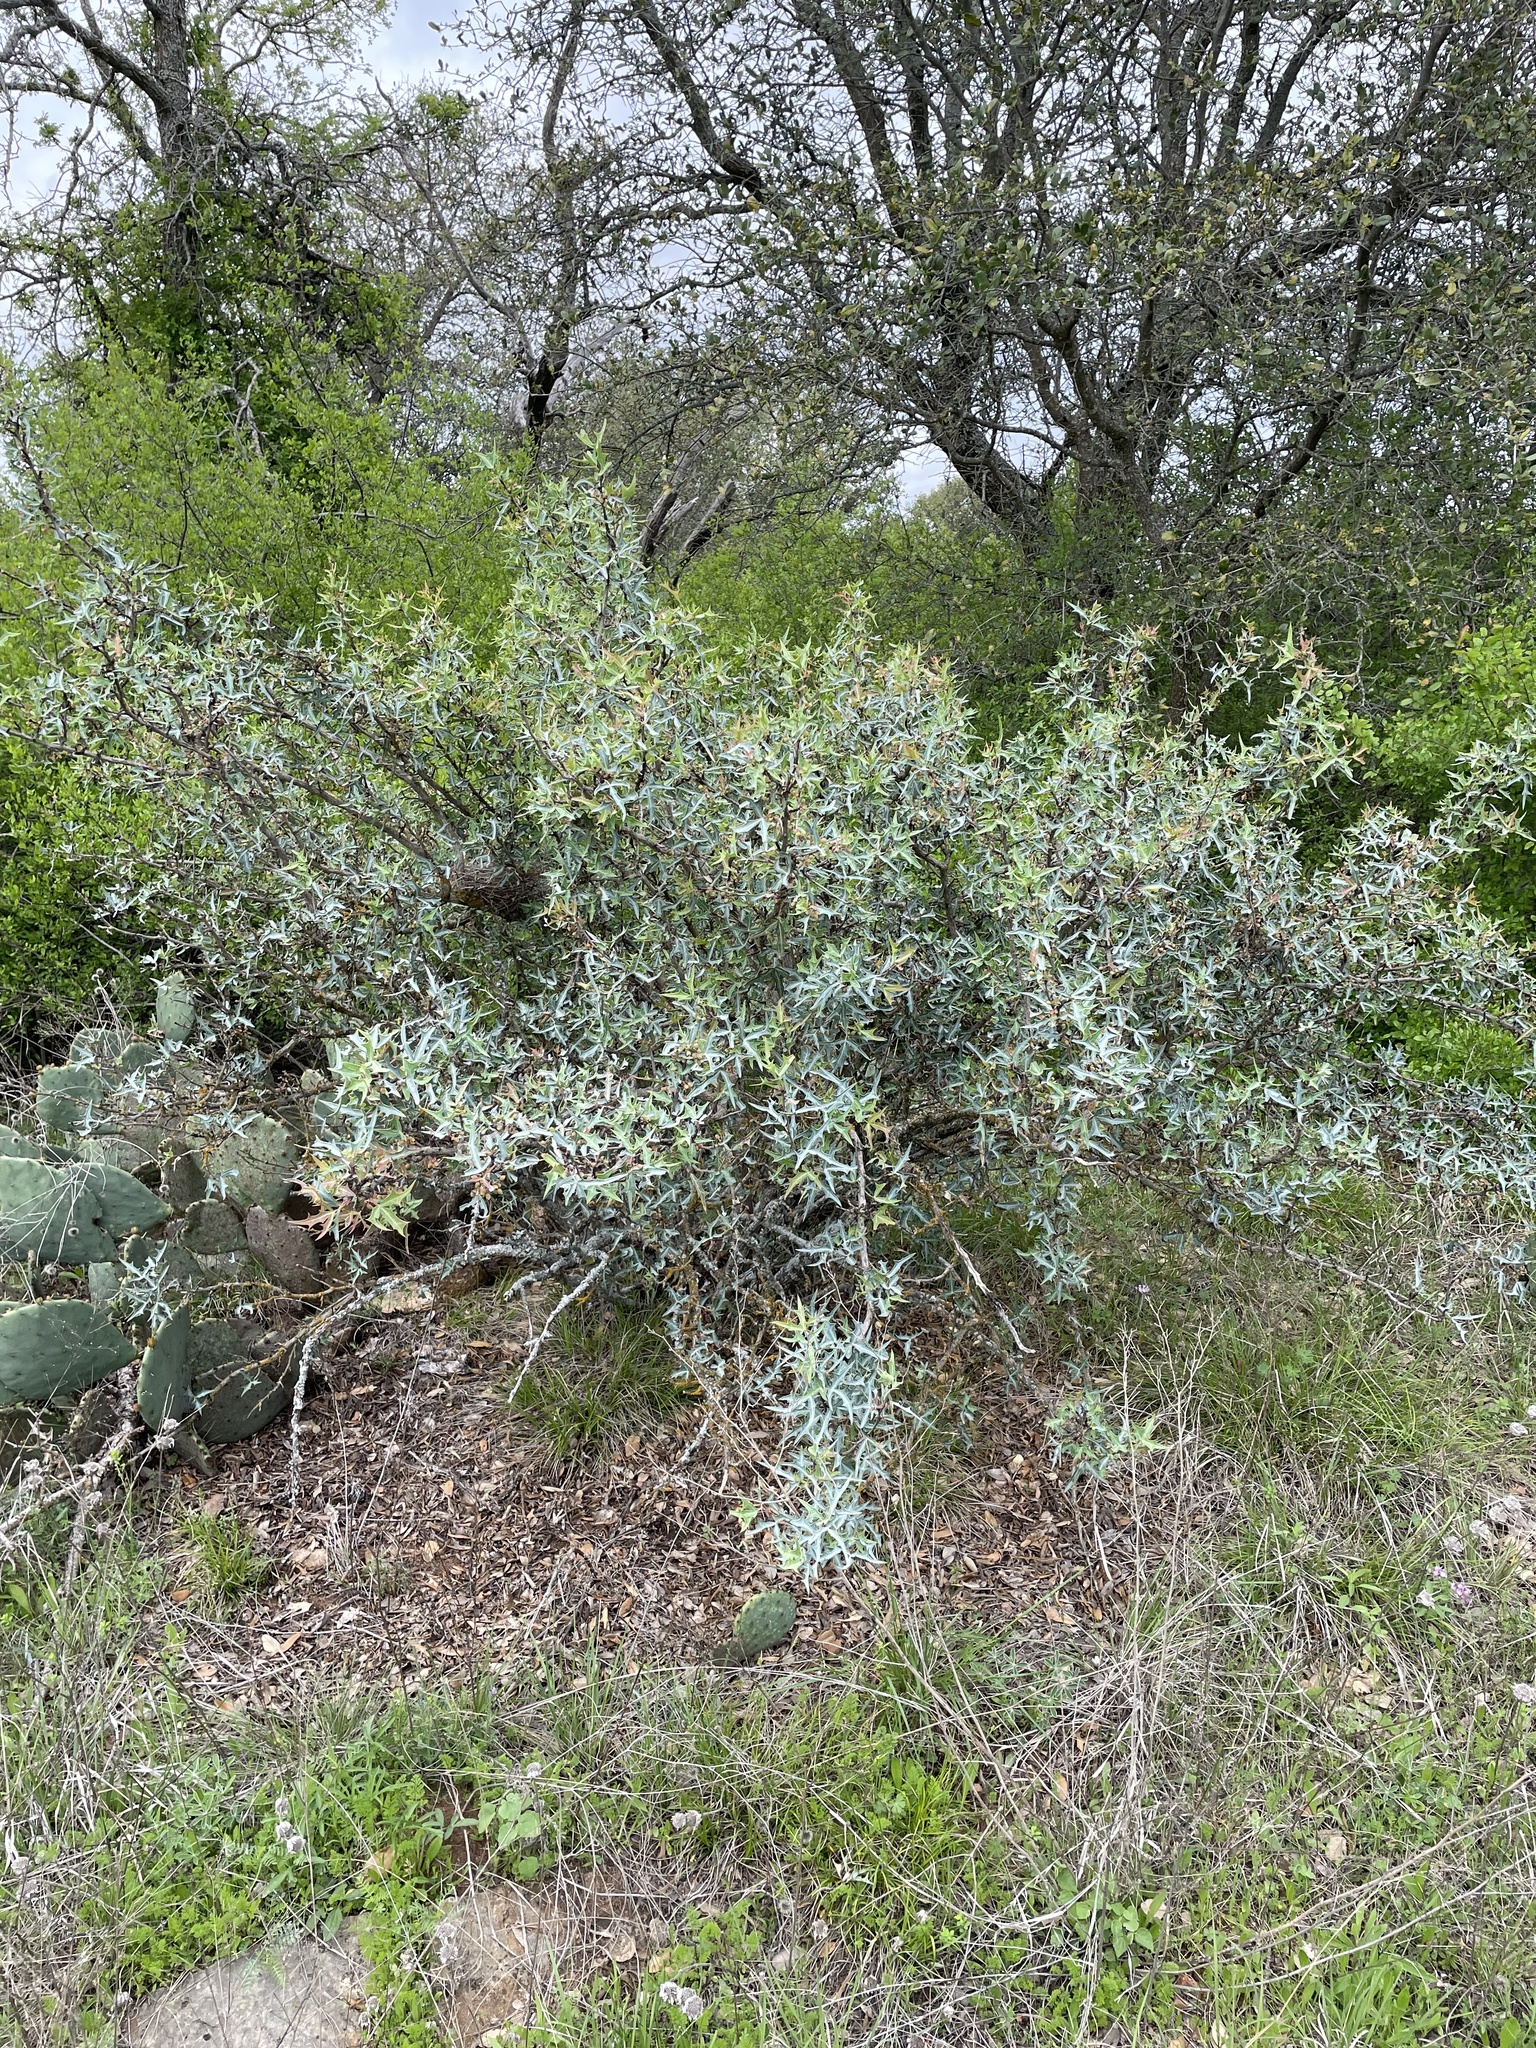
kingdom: Plantae
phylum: Tracheophyta
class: Magnoliopsida
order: Ranunculales
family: Berberidaceae
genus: Alloberberis
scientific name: Alloberberis trifoliolata
